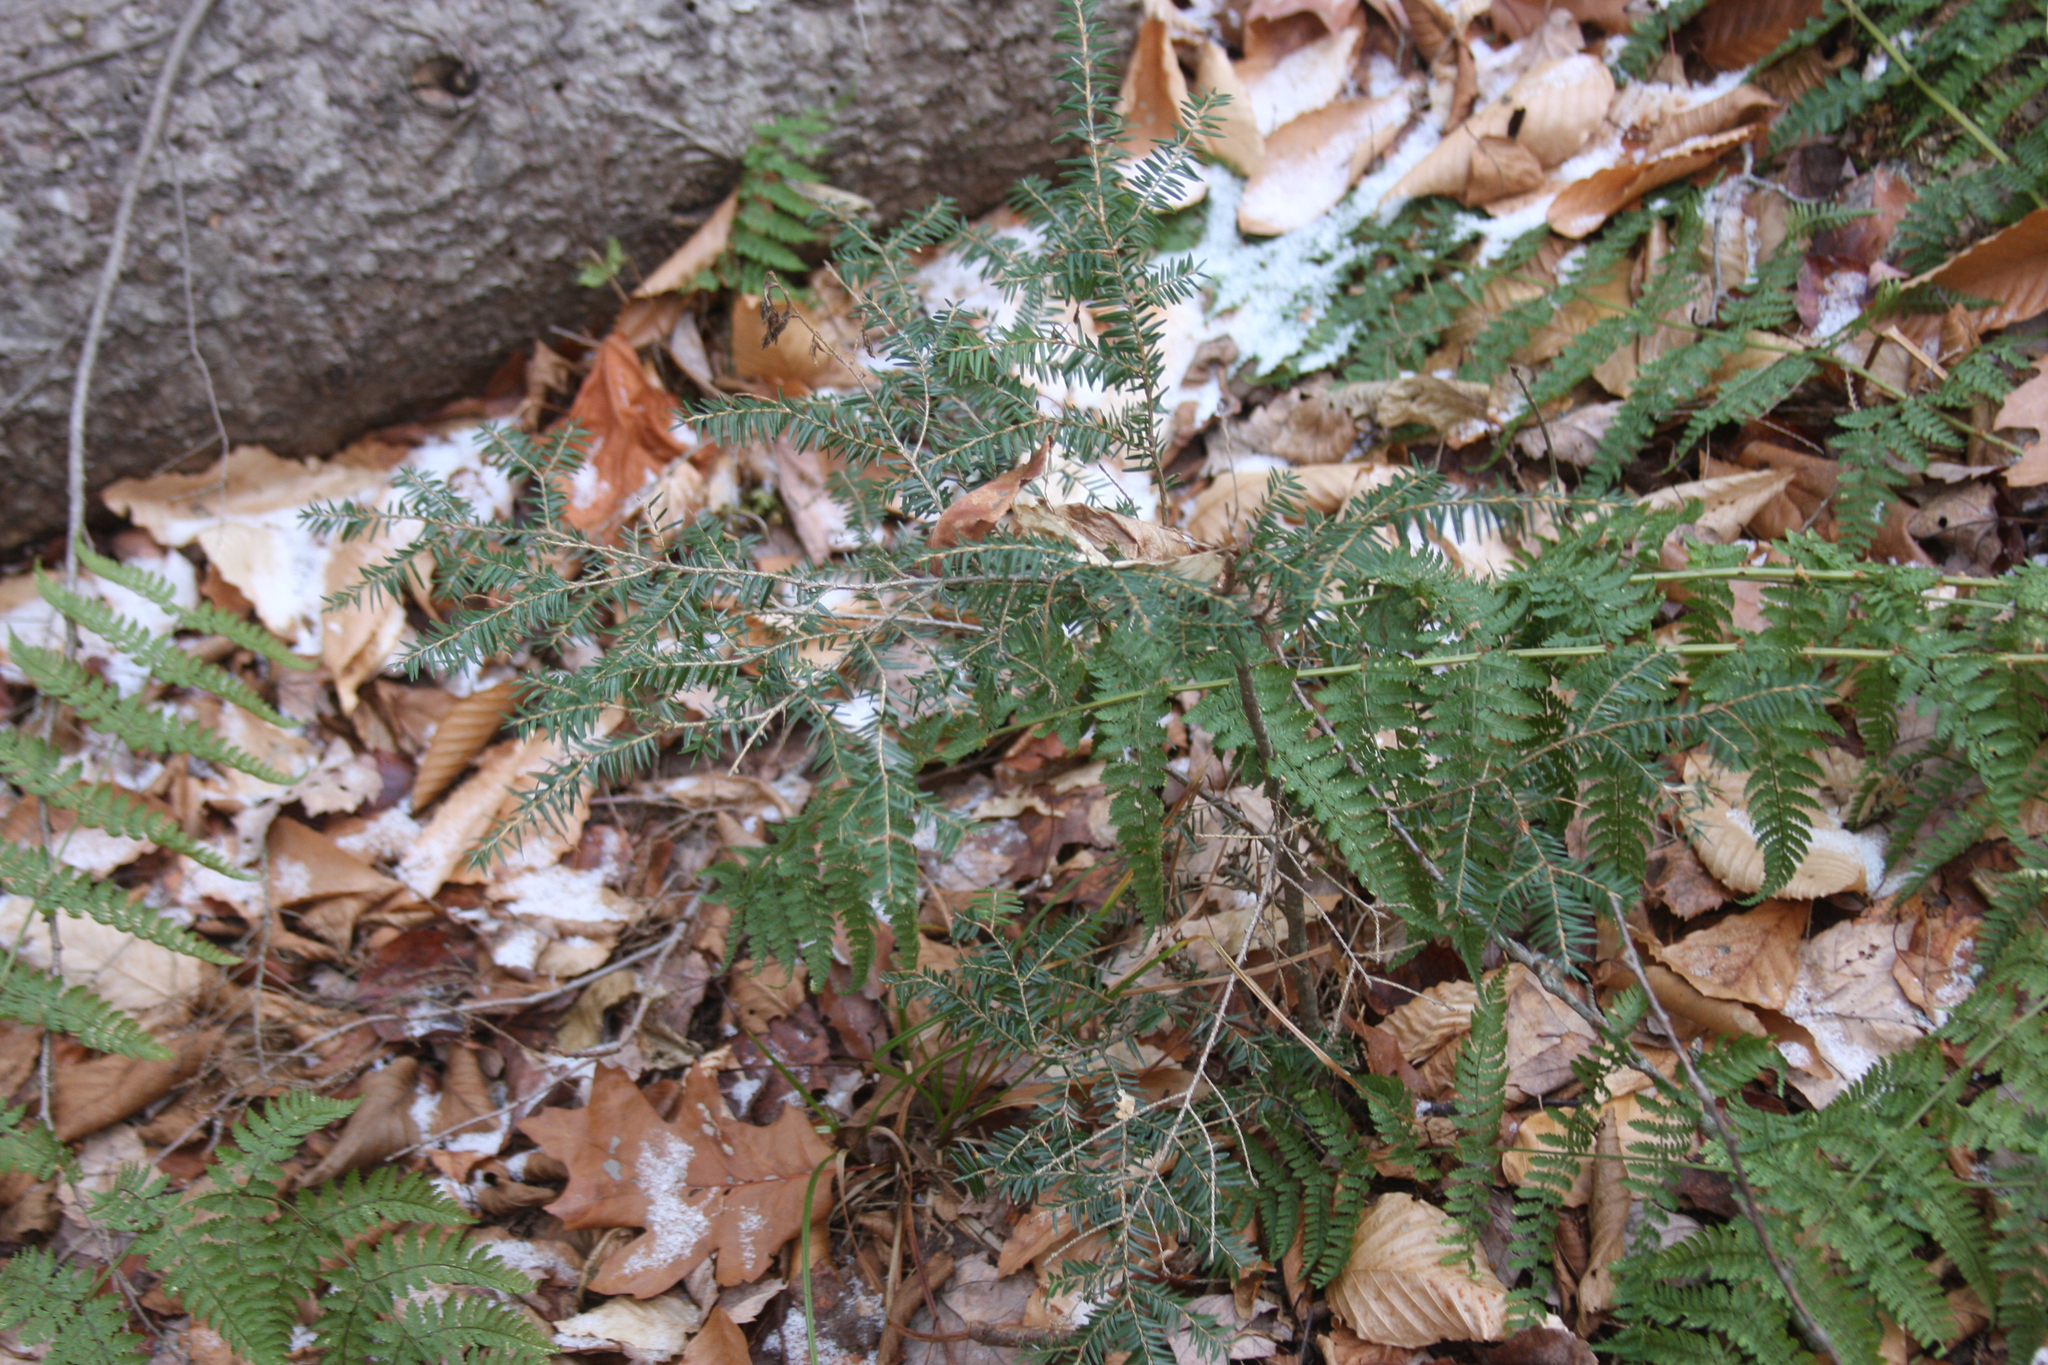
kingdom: Plantae
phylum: Tracheophyta
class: Pinopsida
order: Pinales
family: Pinaceae
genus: Tsuga
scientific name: Tsuga canadensis
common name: Eastern hemlock
